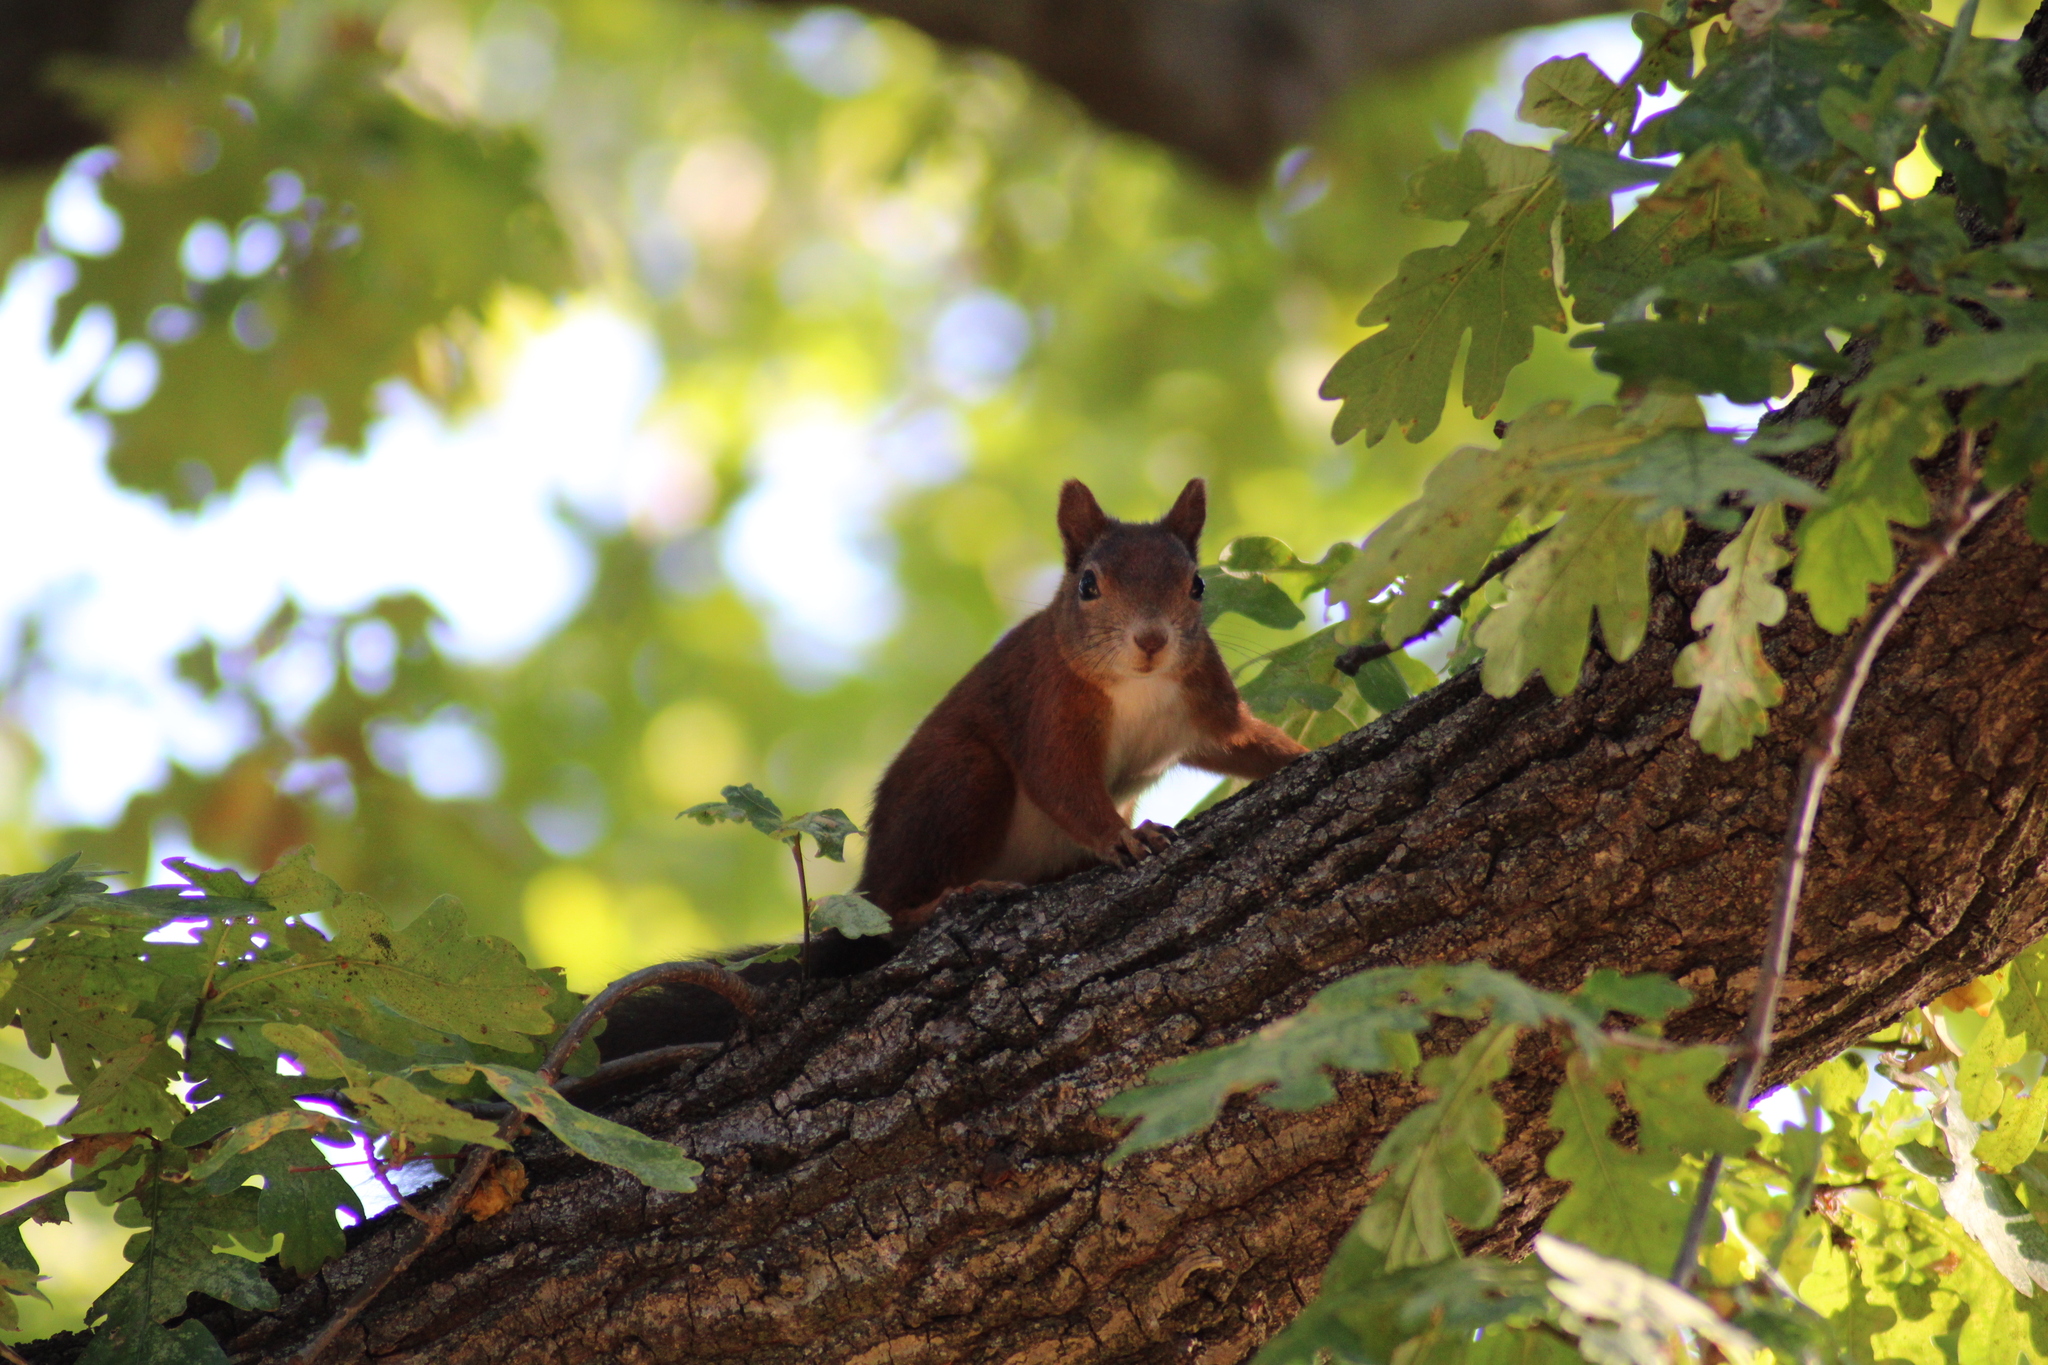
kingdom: Animalia
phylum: Chordata
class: Mammalia
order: Rodentia
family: Sciuridae
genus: Sciurus
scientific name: Sciurus vulgaris
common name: Eurasian red squirrel
